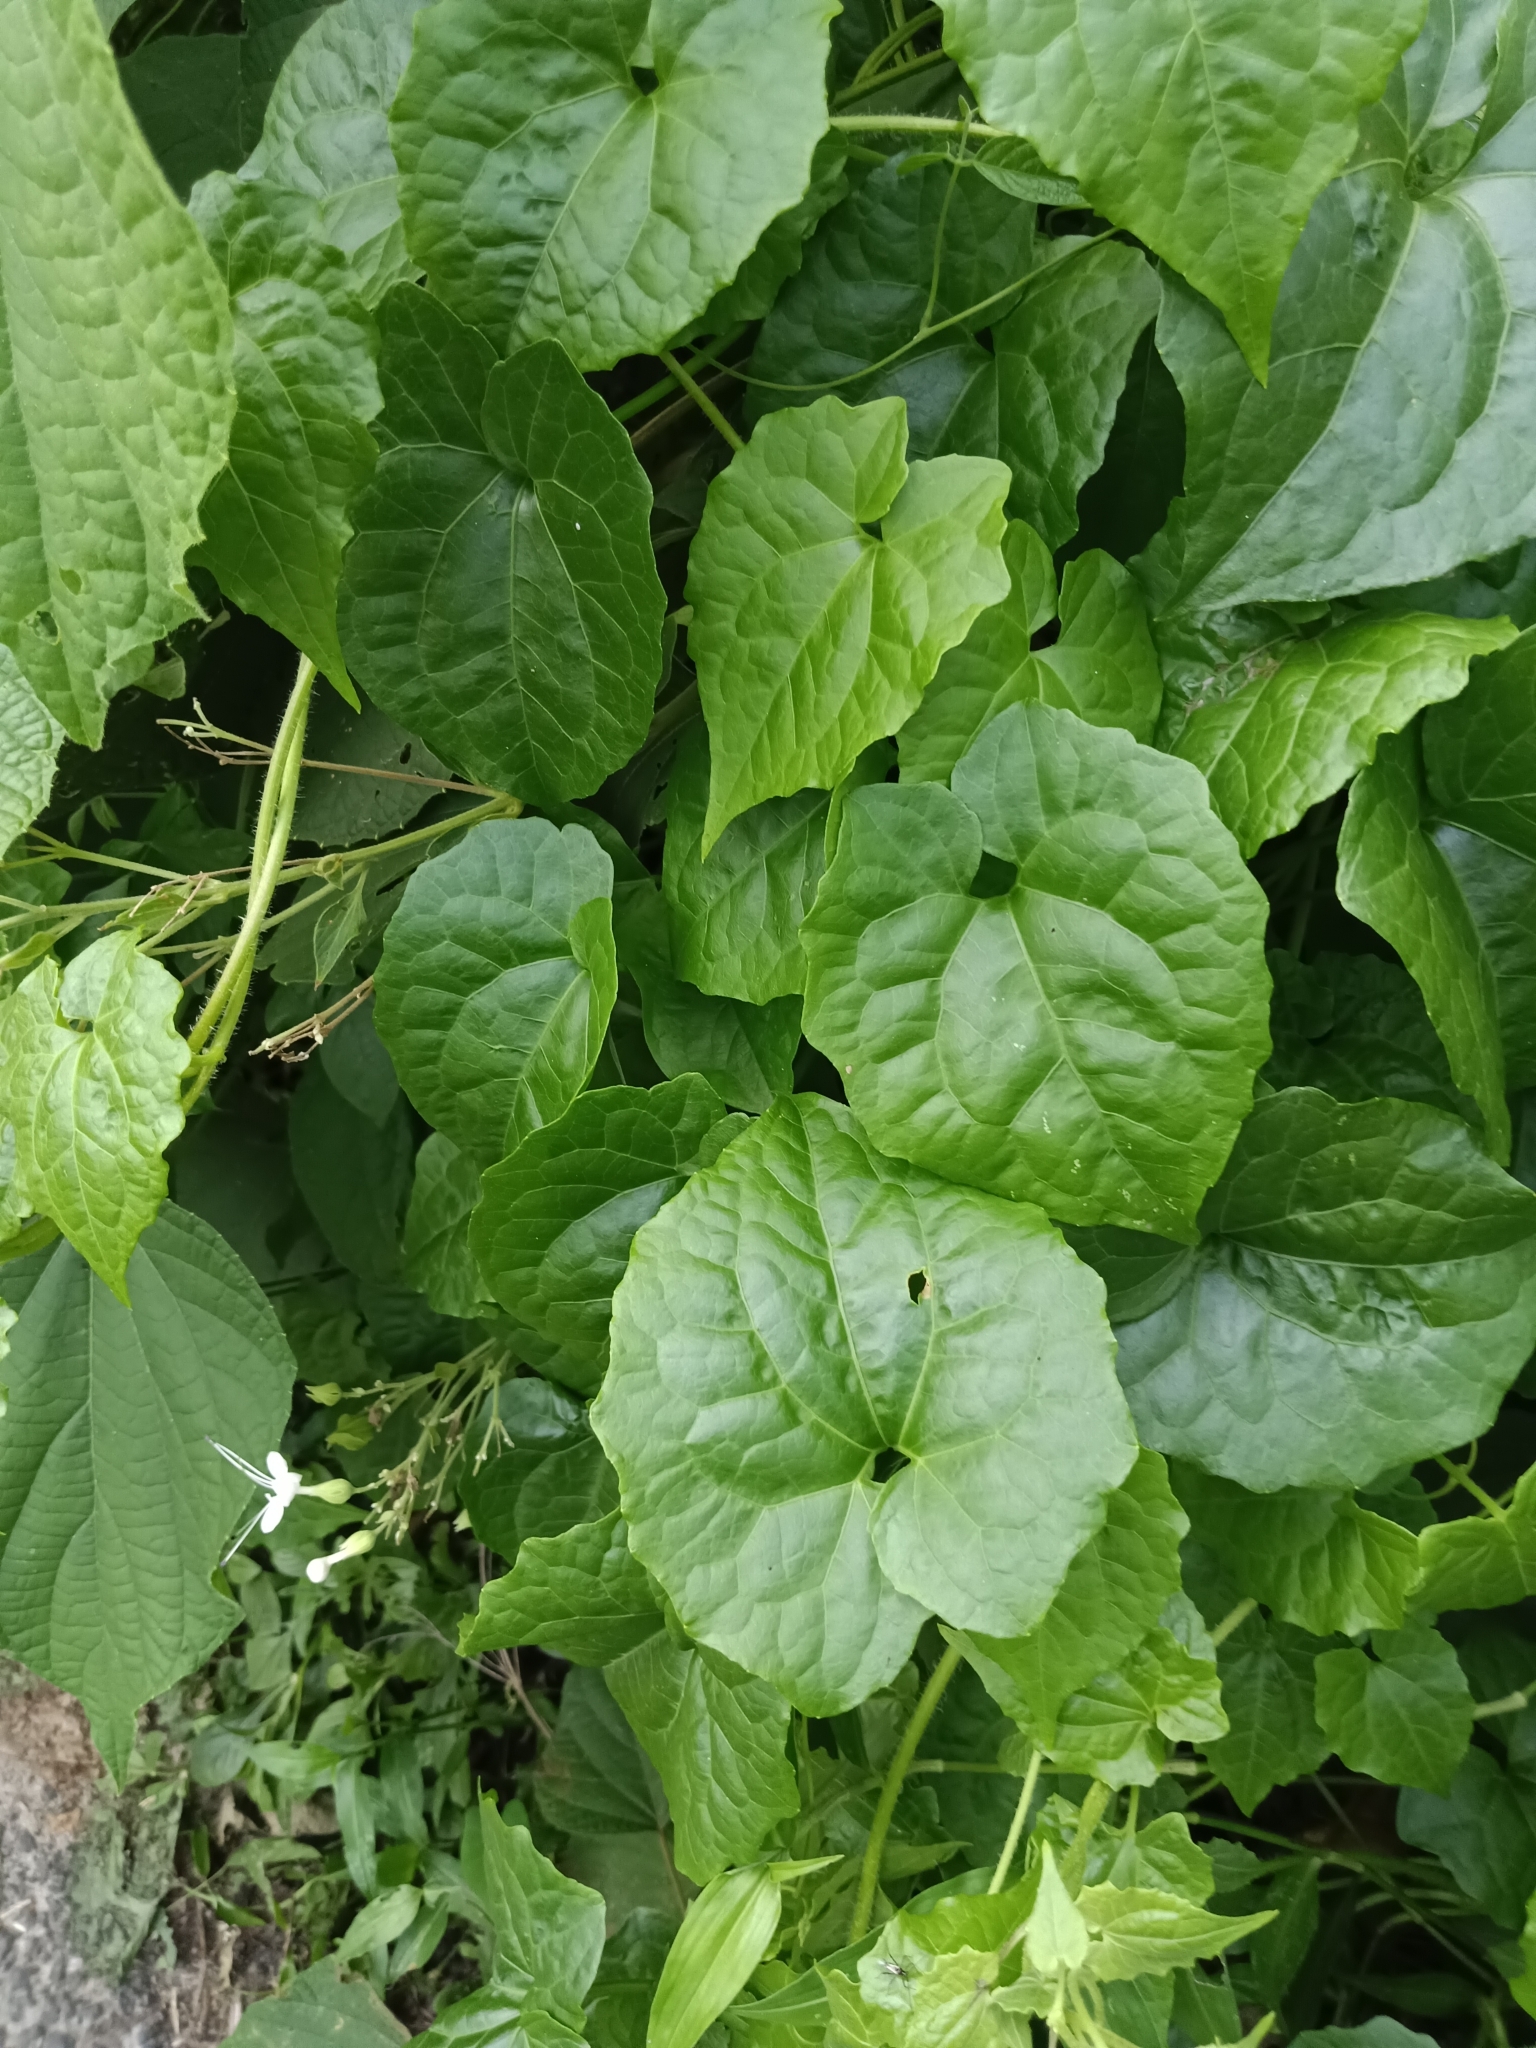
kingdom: Plantae
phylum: Tracheophyta
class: Magnoliopsida
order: Asterales
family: Asteraceae
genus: Mikania
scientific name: Mikania micrantha
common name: Mile-a-minute
